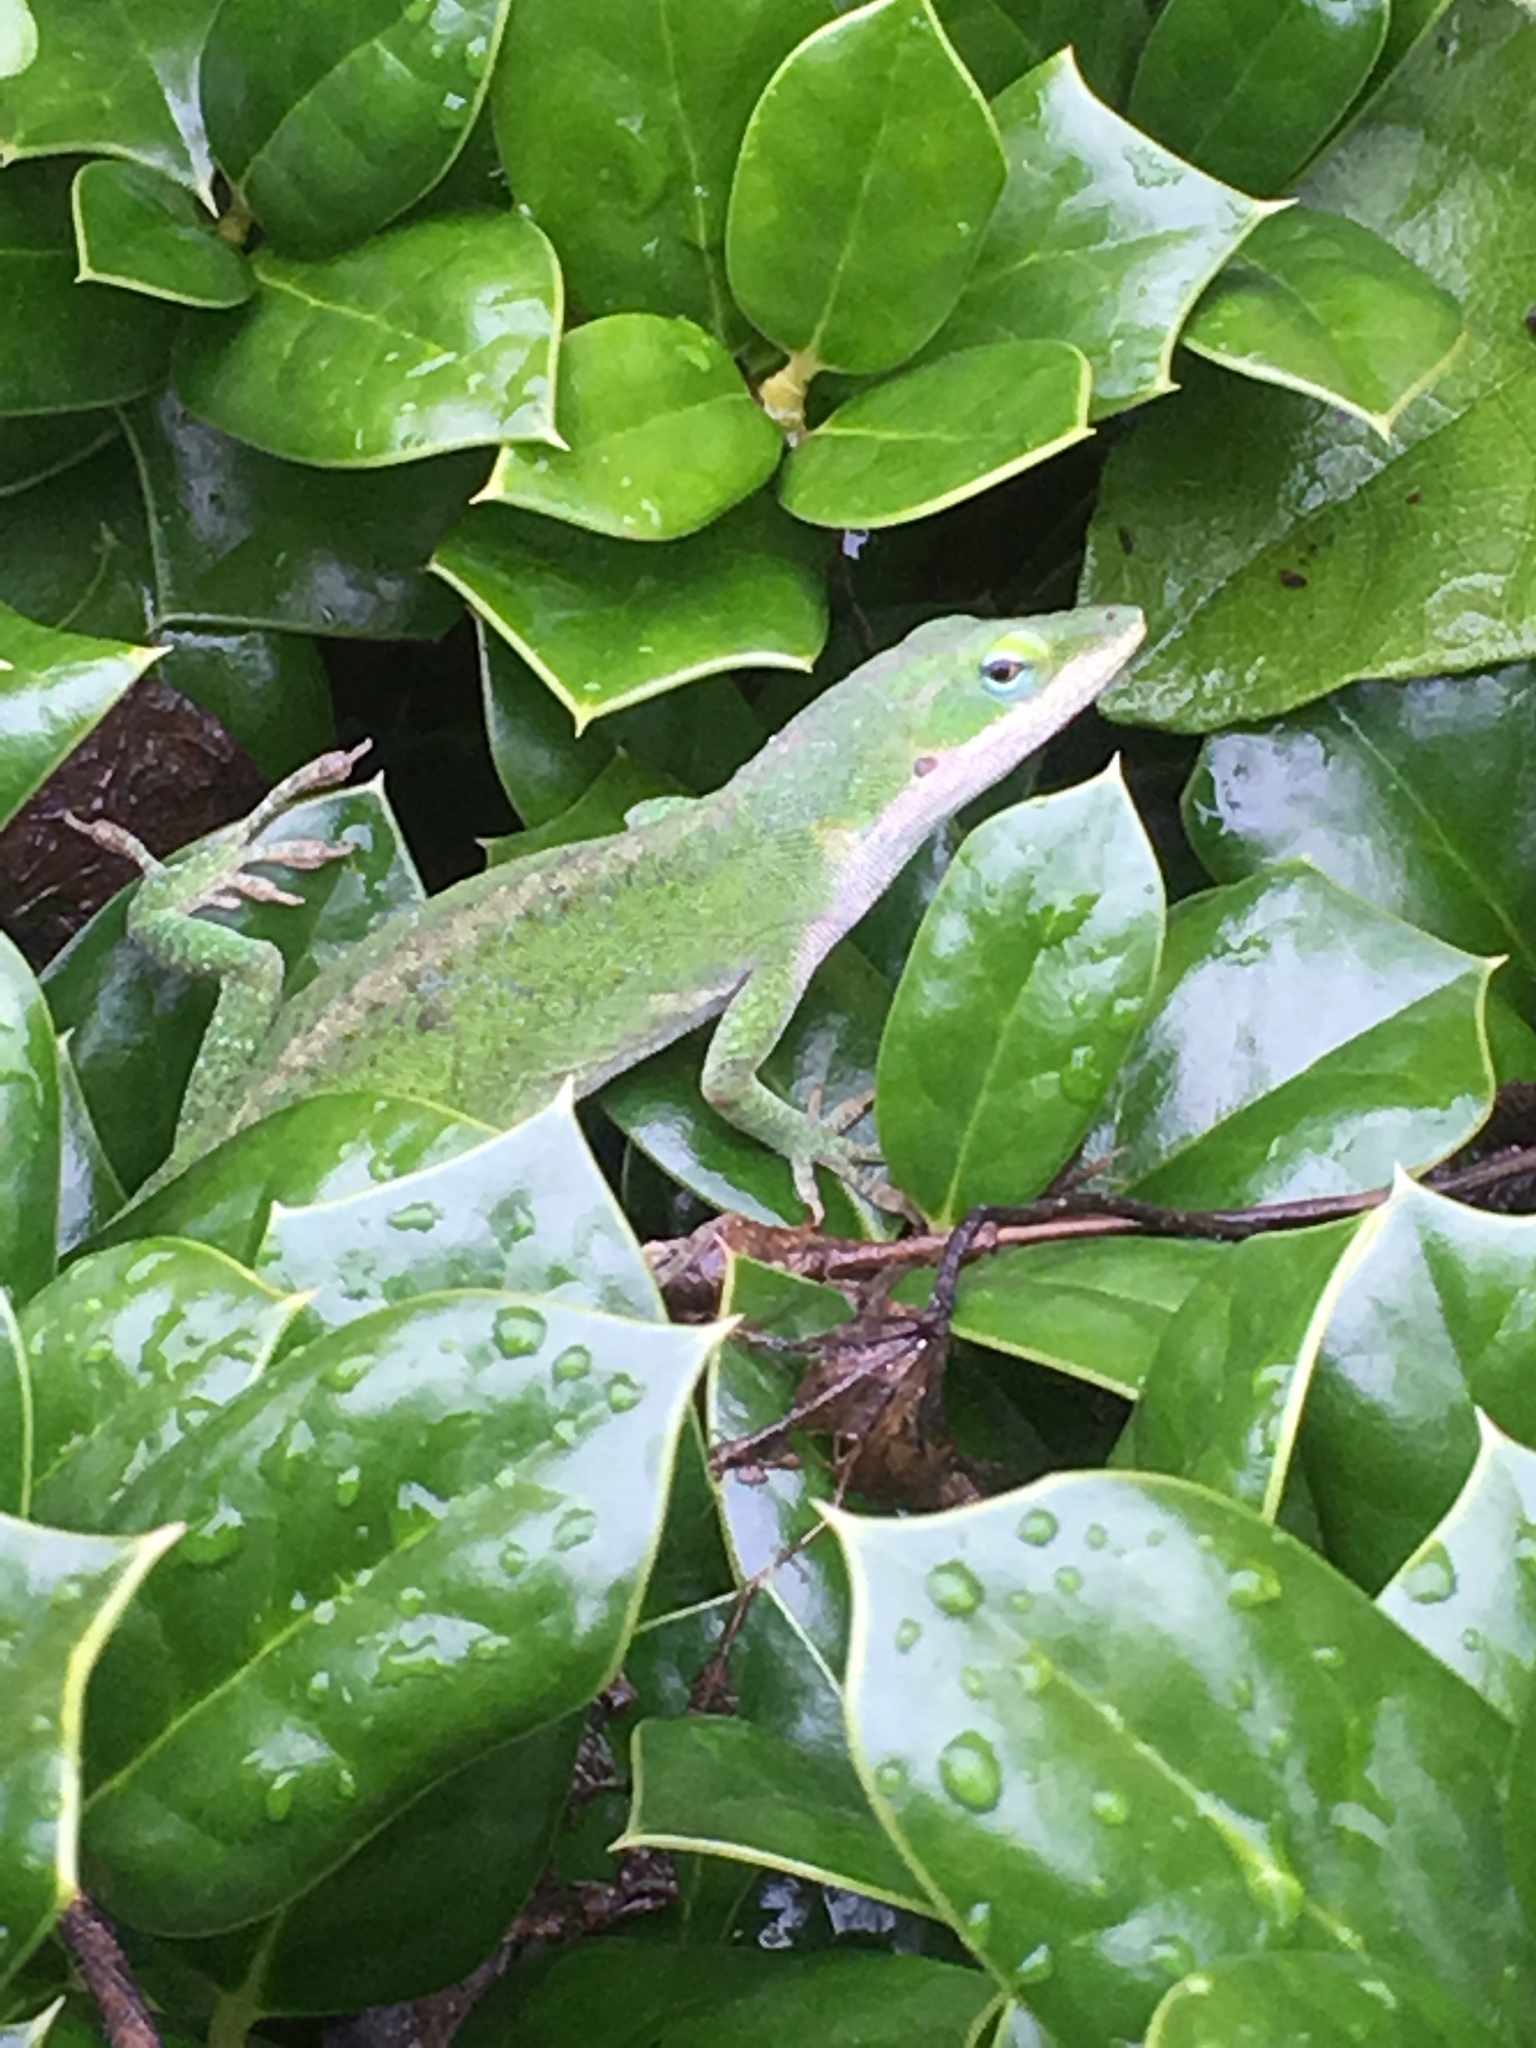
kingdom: Animalia
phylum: Chordata
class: Squamata
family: Dactyloidae
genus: Anolis
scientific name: Anolis carolinensis
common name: Green anole
